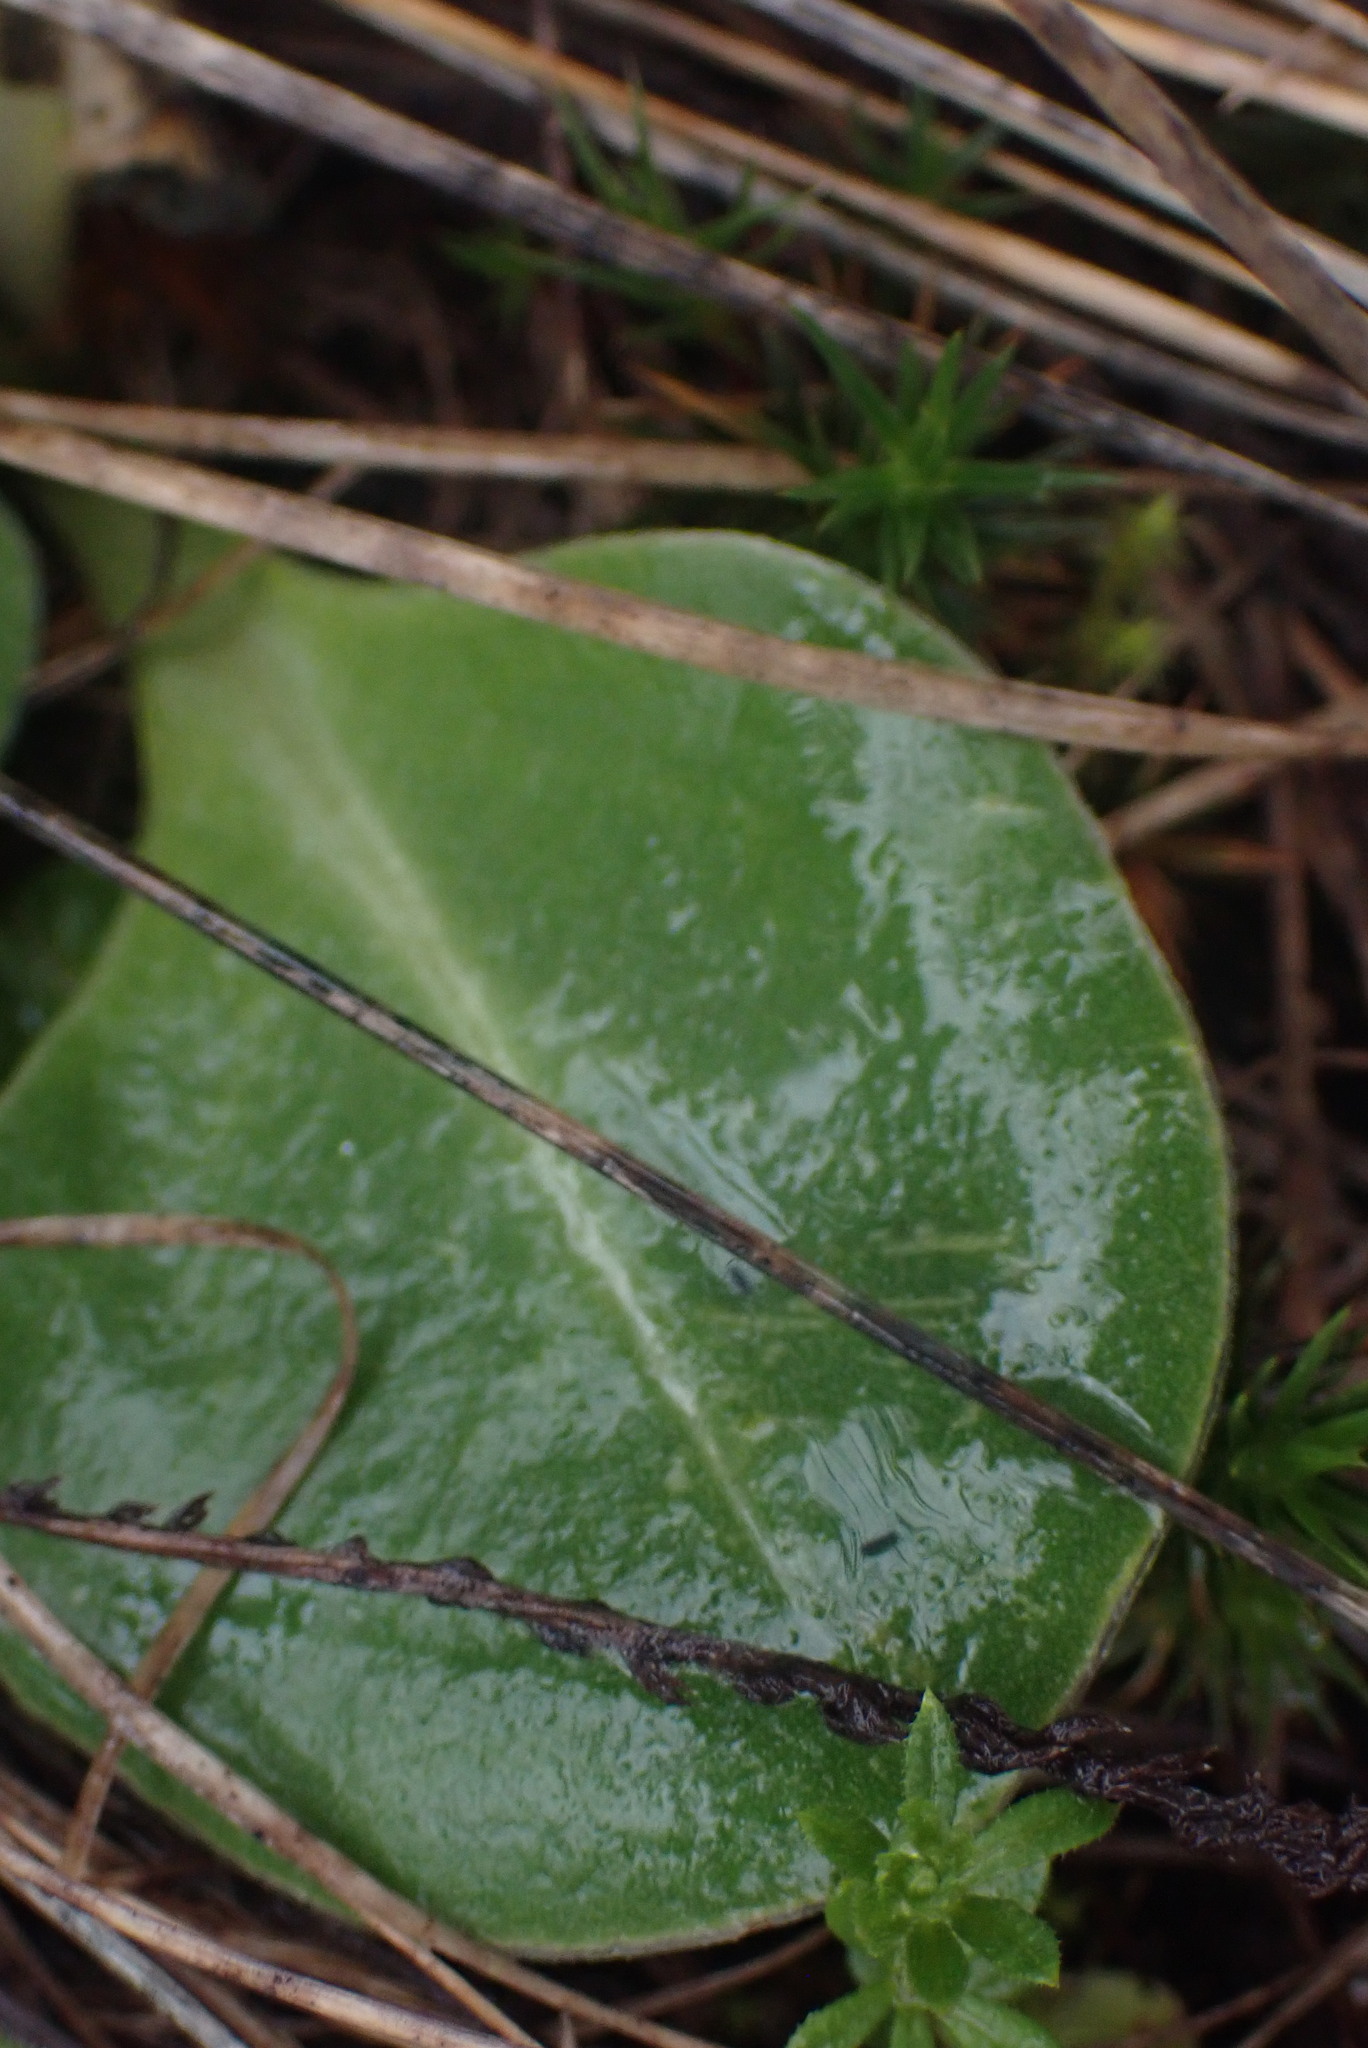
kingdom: Plantae
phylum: Tracheophyta
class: Magnoliopsida
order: Ericales
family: Primulaceae
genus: Dodecatheon
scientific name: Dodecatheon hendersonii
